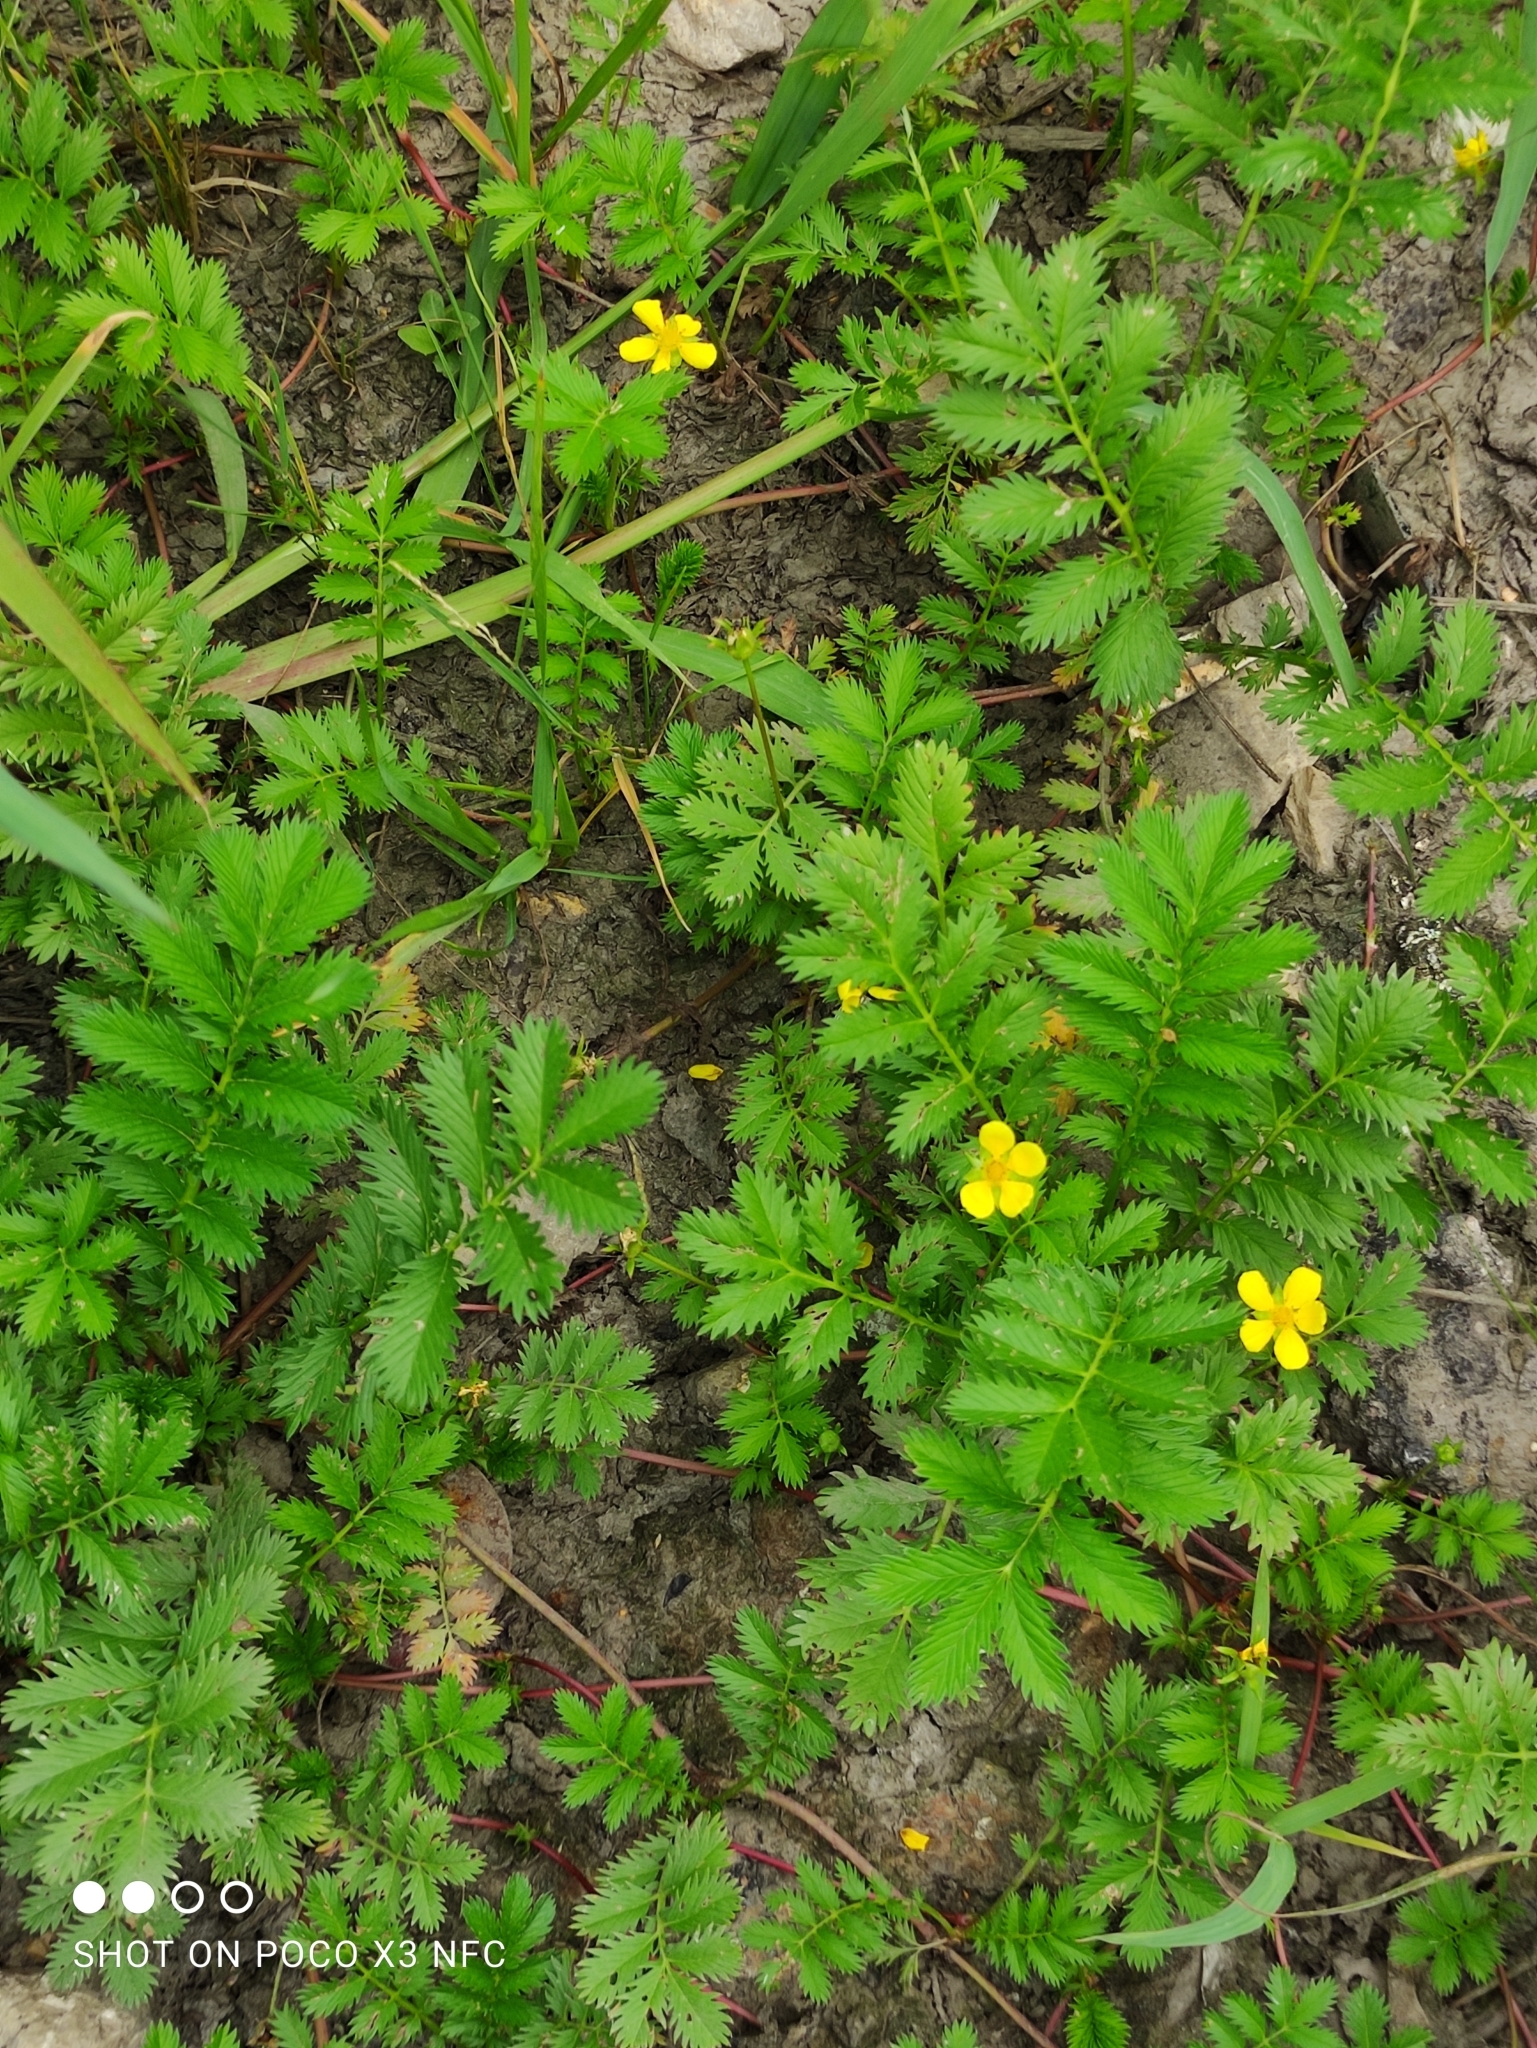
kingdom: Plantae
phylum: Tracheophyta
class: Magnoliopsida
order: Rosales
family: Rosaceae
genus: Argentina
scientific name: Argentina anserina
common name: Common silverweed
